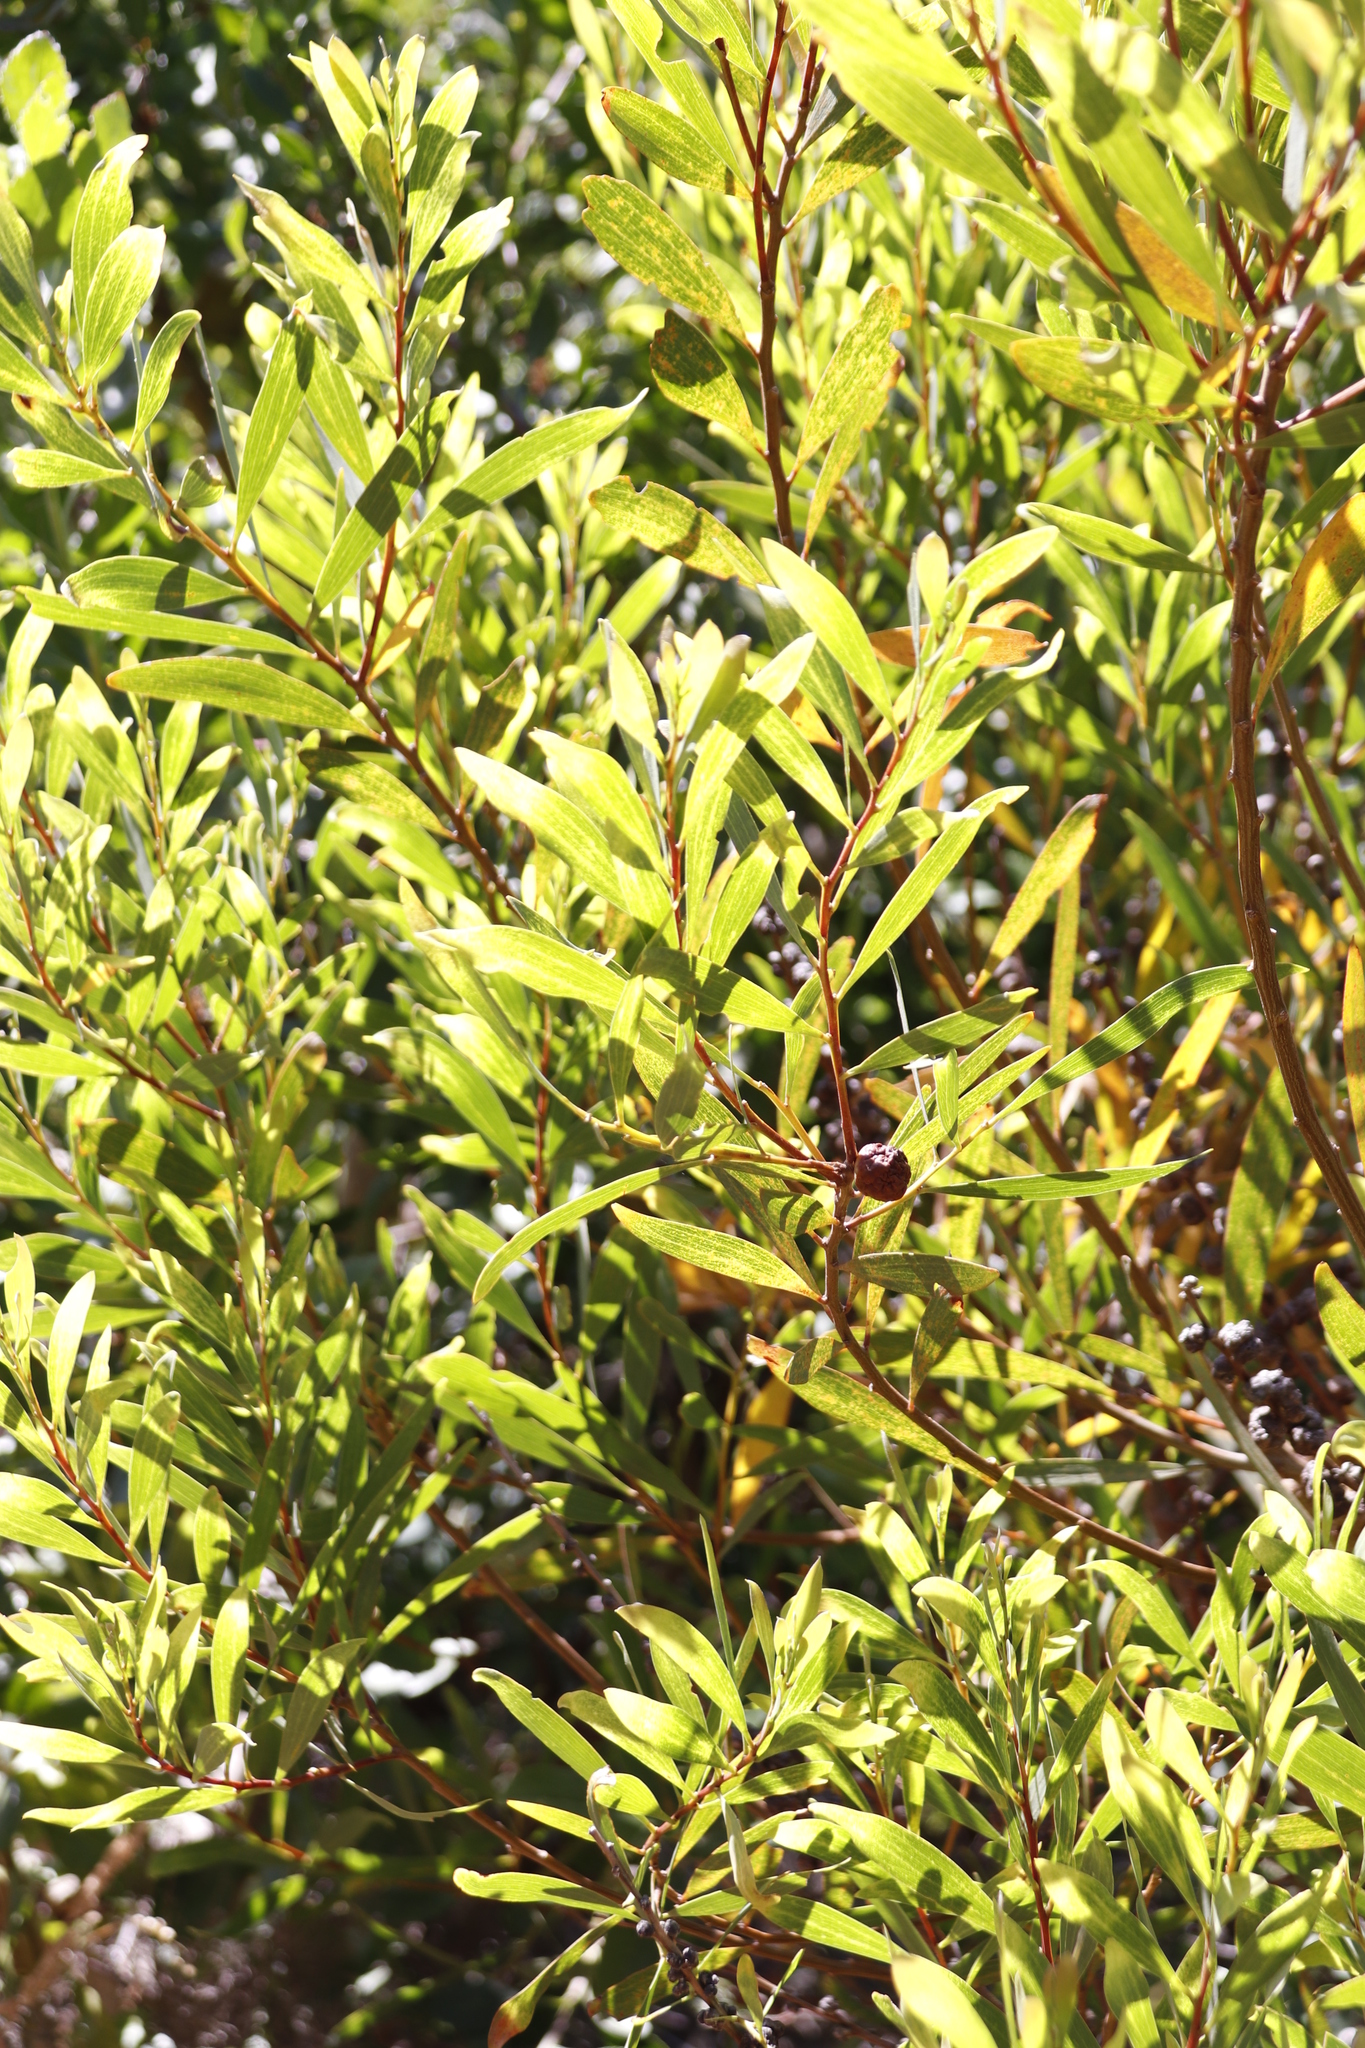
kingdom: Animalia
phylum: Arthropoda
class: Insecta
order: Hymenoptera
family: Pteromalidae
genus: Trichilogaster
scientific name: Trichilogaster acaciaelongifoliae
